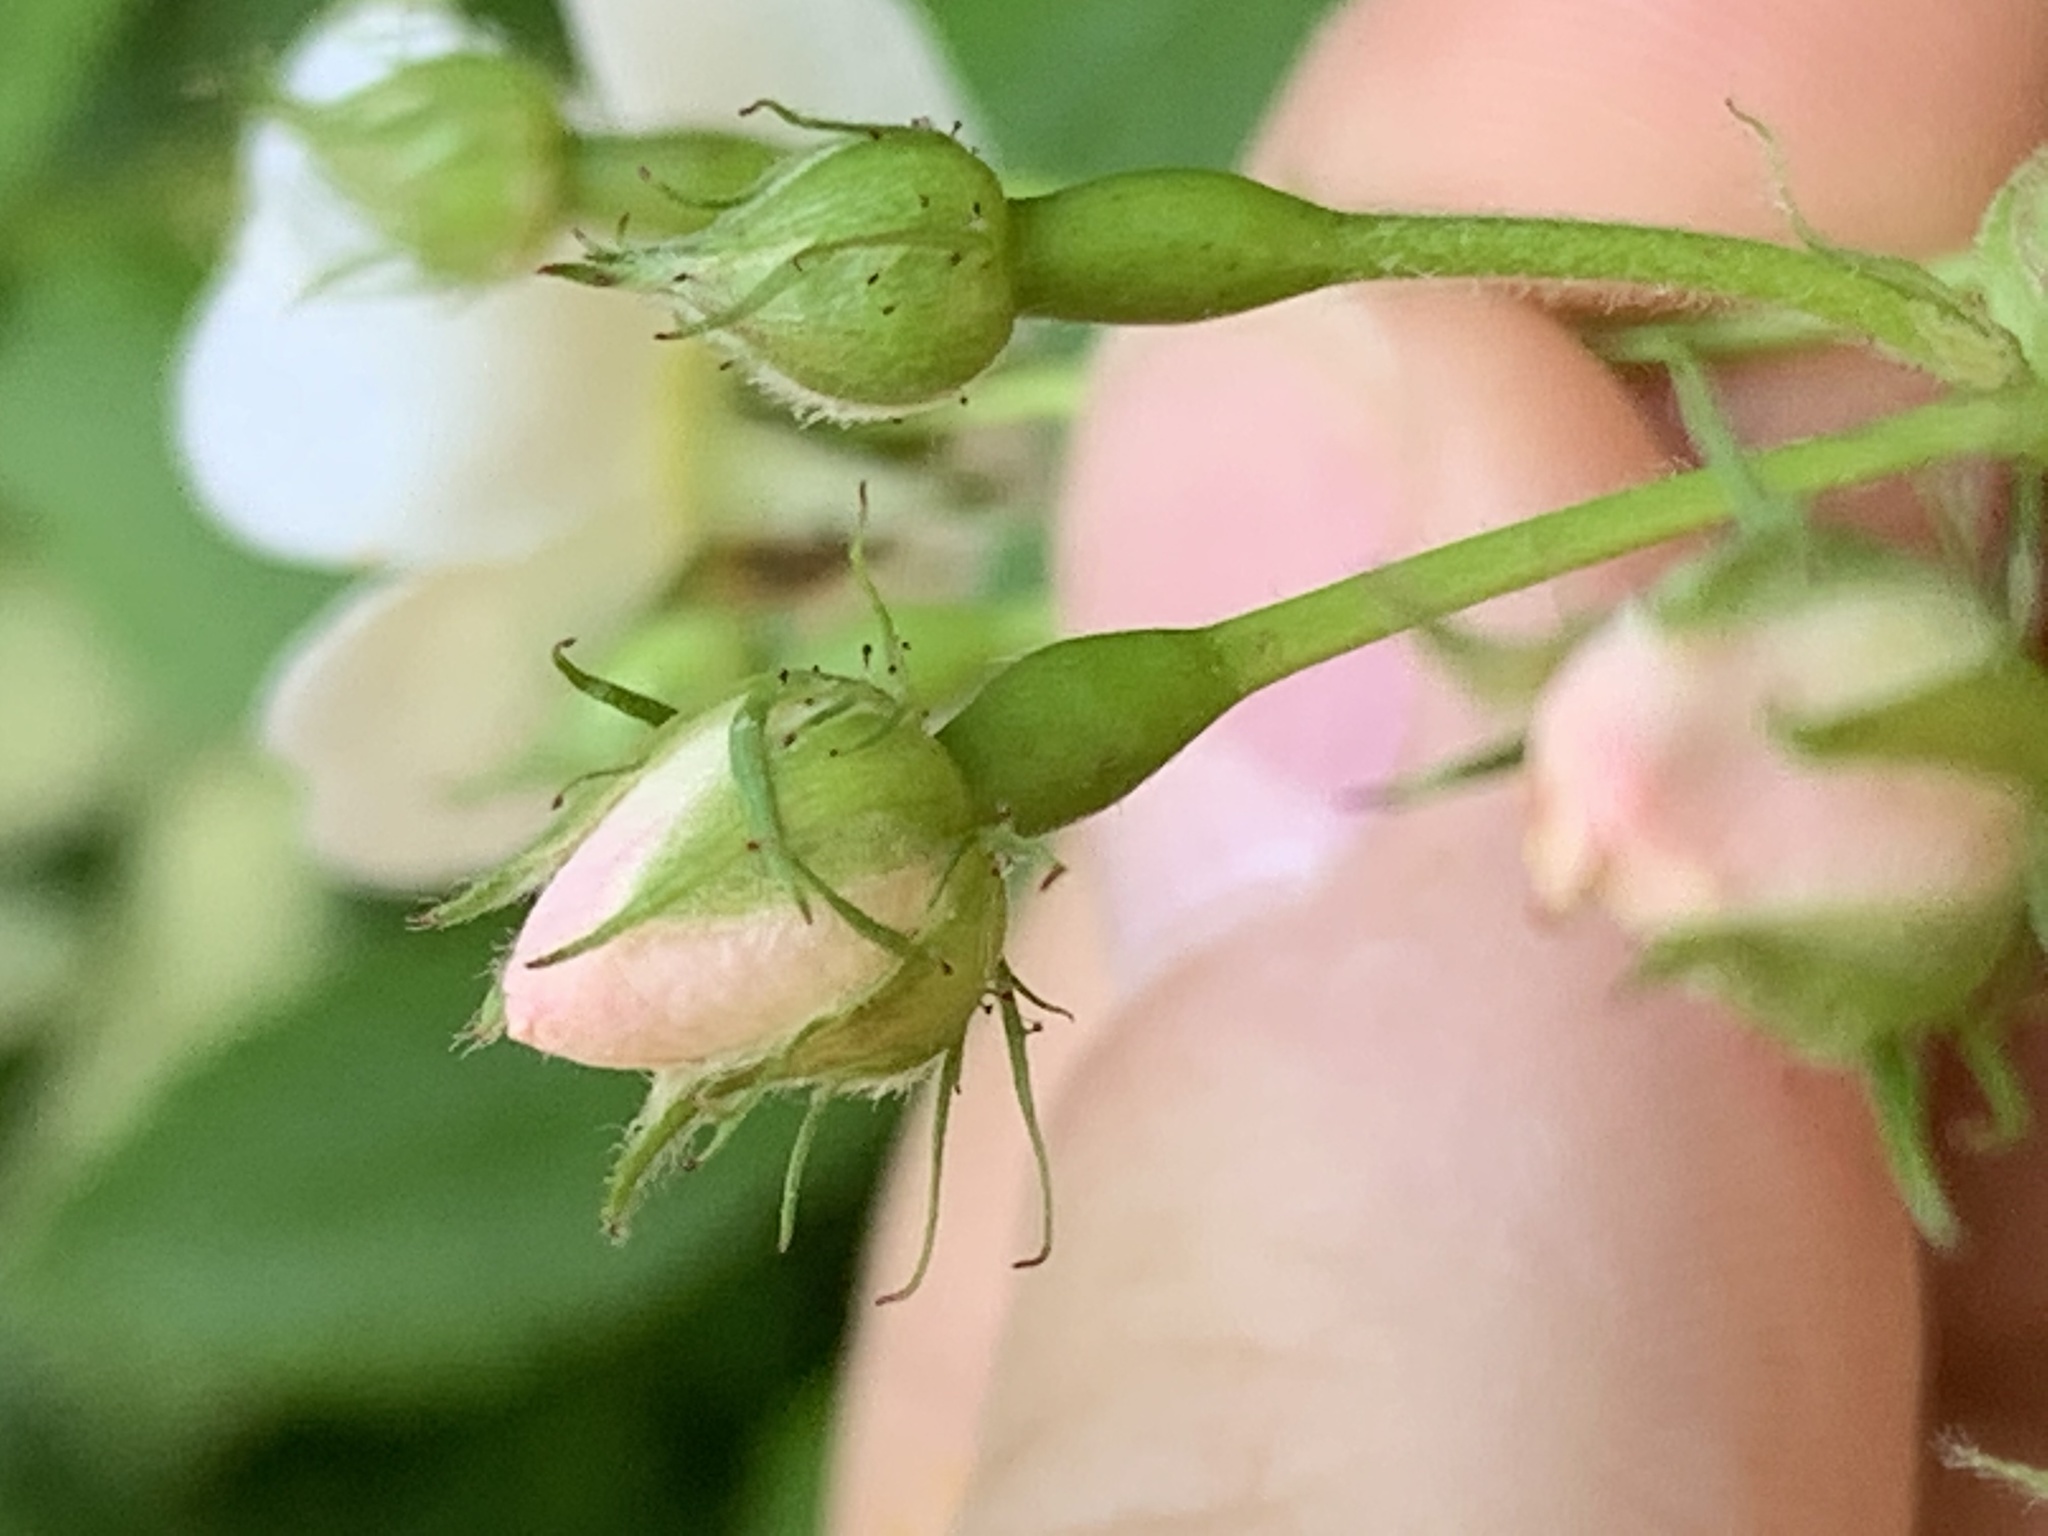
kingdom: Plantae
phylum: Tracheophyta
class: Magnoliopsida
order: Rosales
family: Rosaceae
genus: Rosa
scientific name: Rosa multiflora
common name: Multiflora rose
